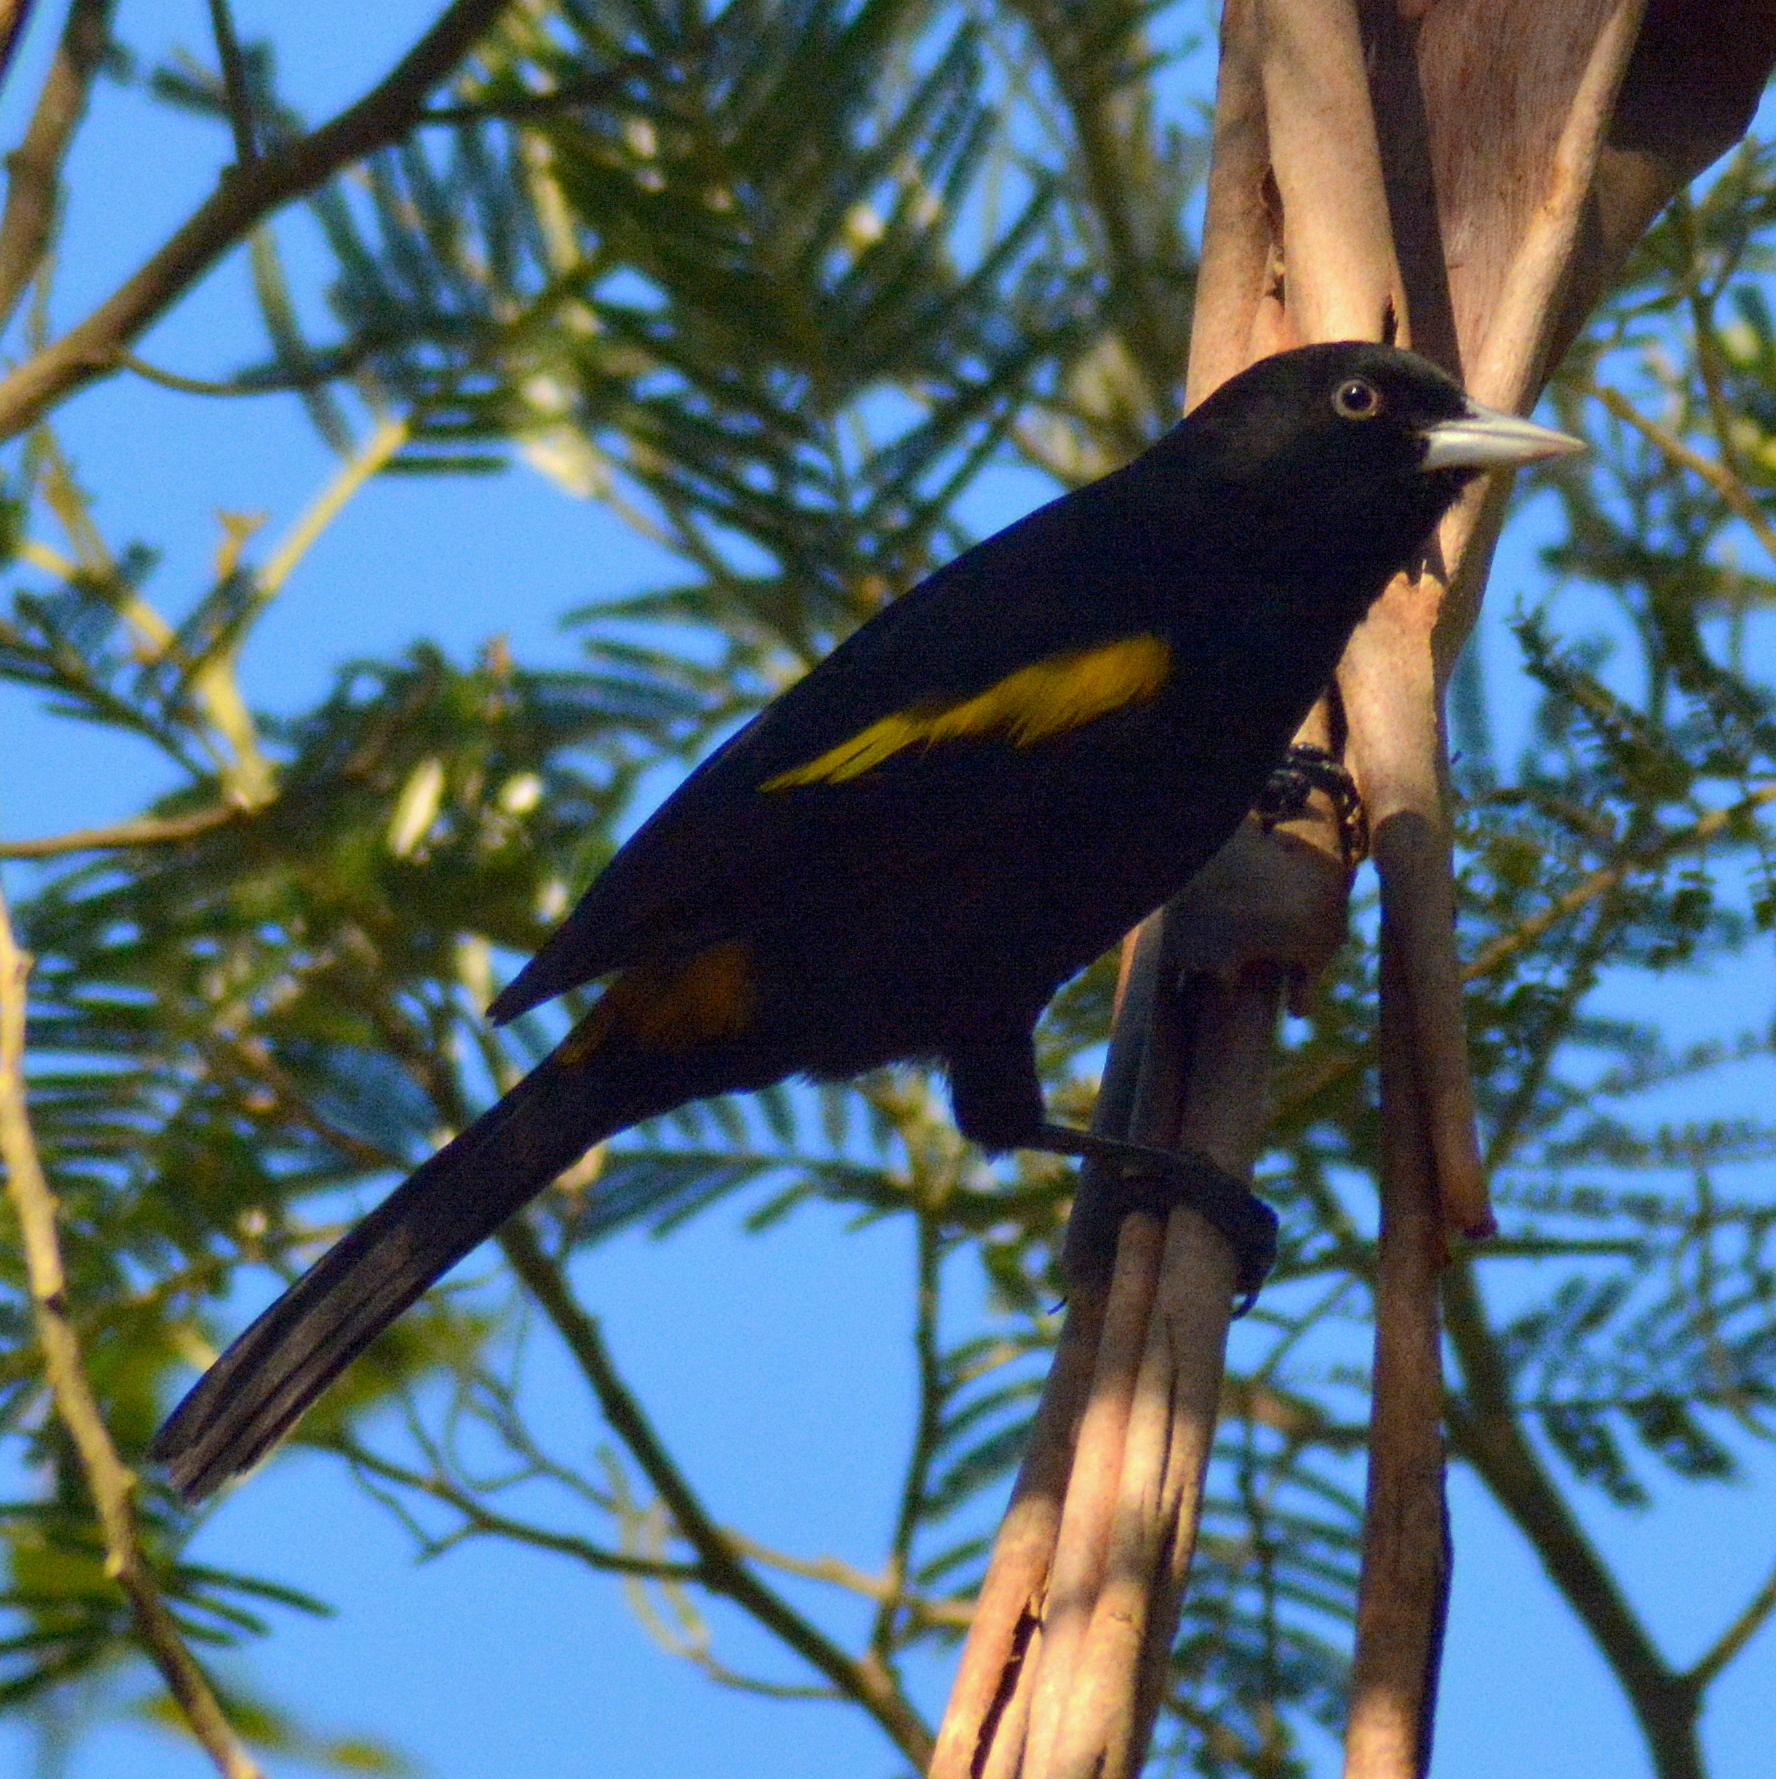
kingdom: Animalia
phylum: Chordata
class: Aves
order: Passeriformes
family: Icteridae
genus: Cacicus
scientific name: Cacicus chrysopterus
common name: Golden-winged cacique
